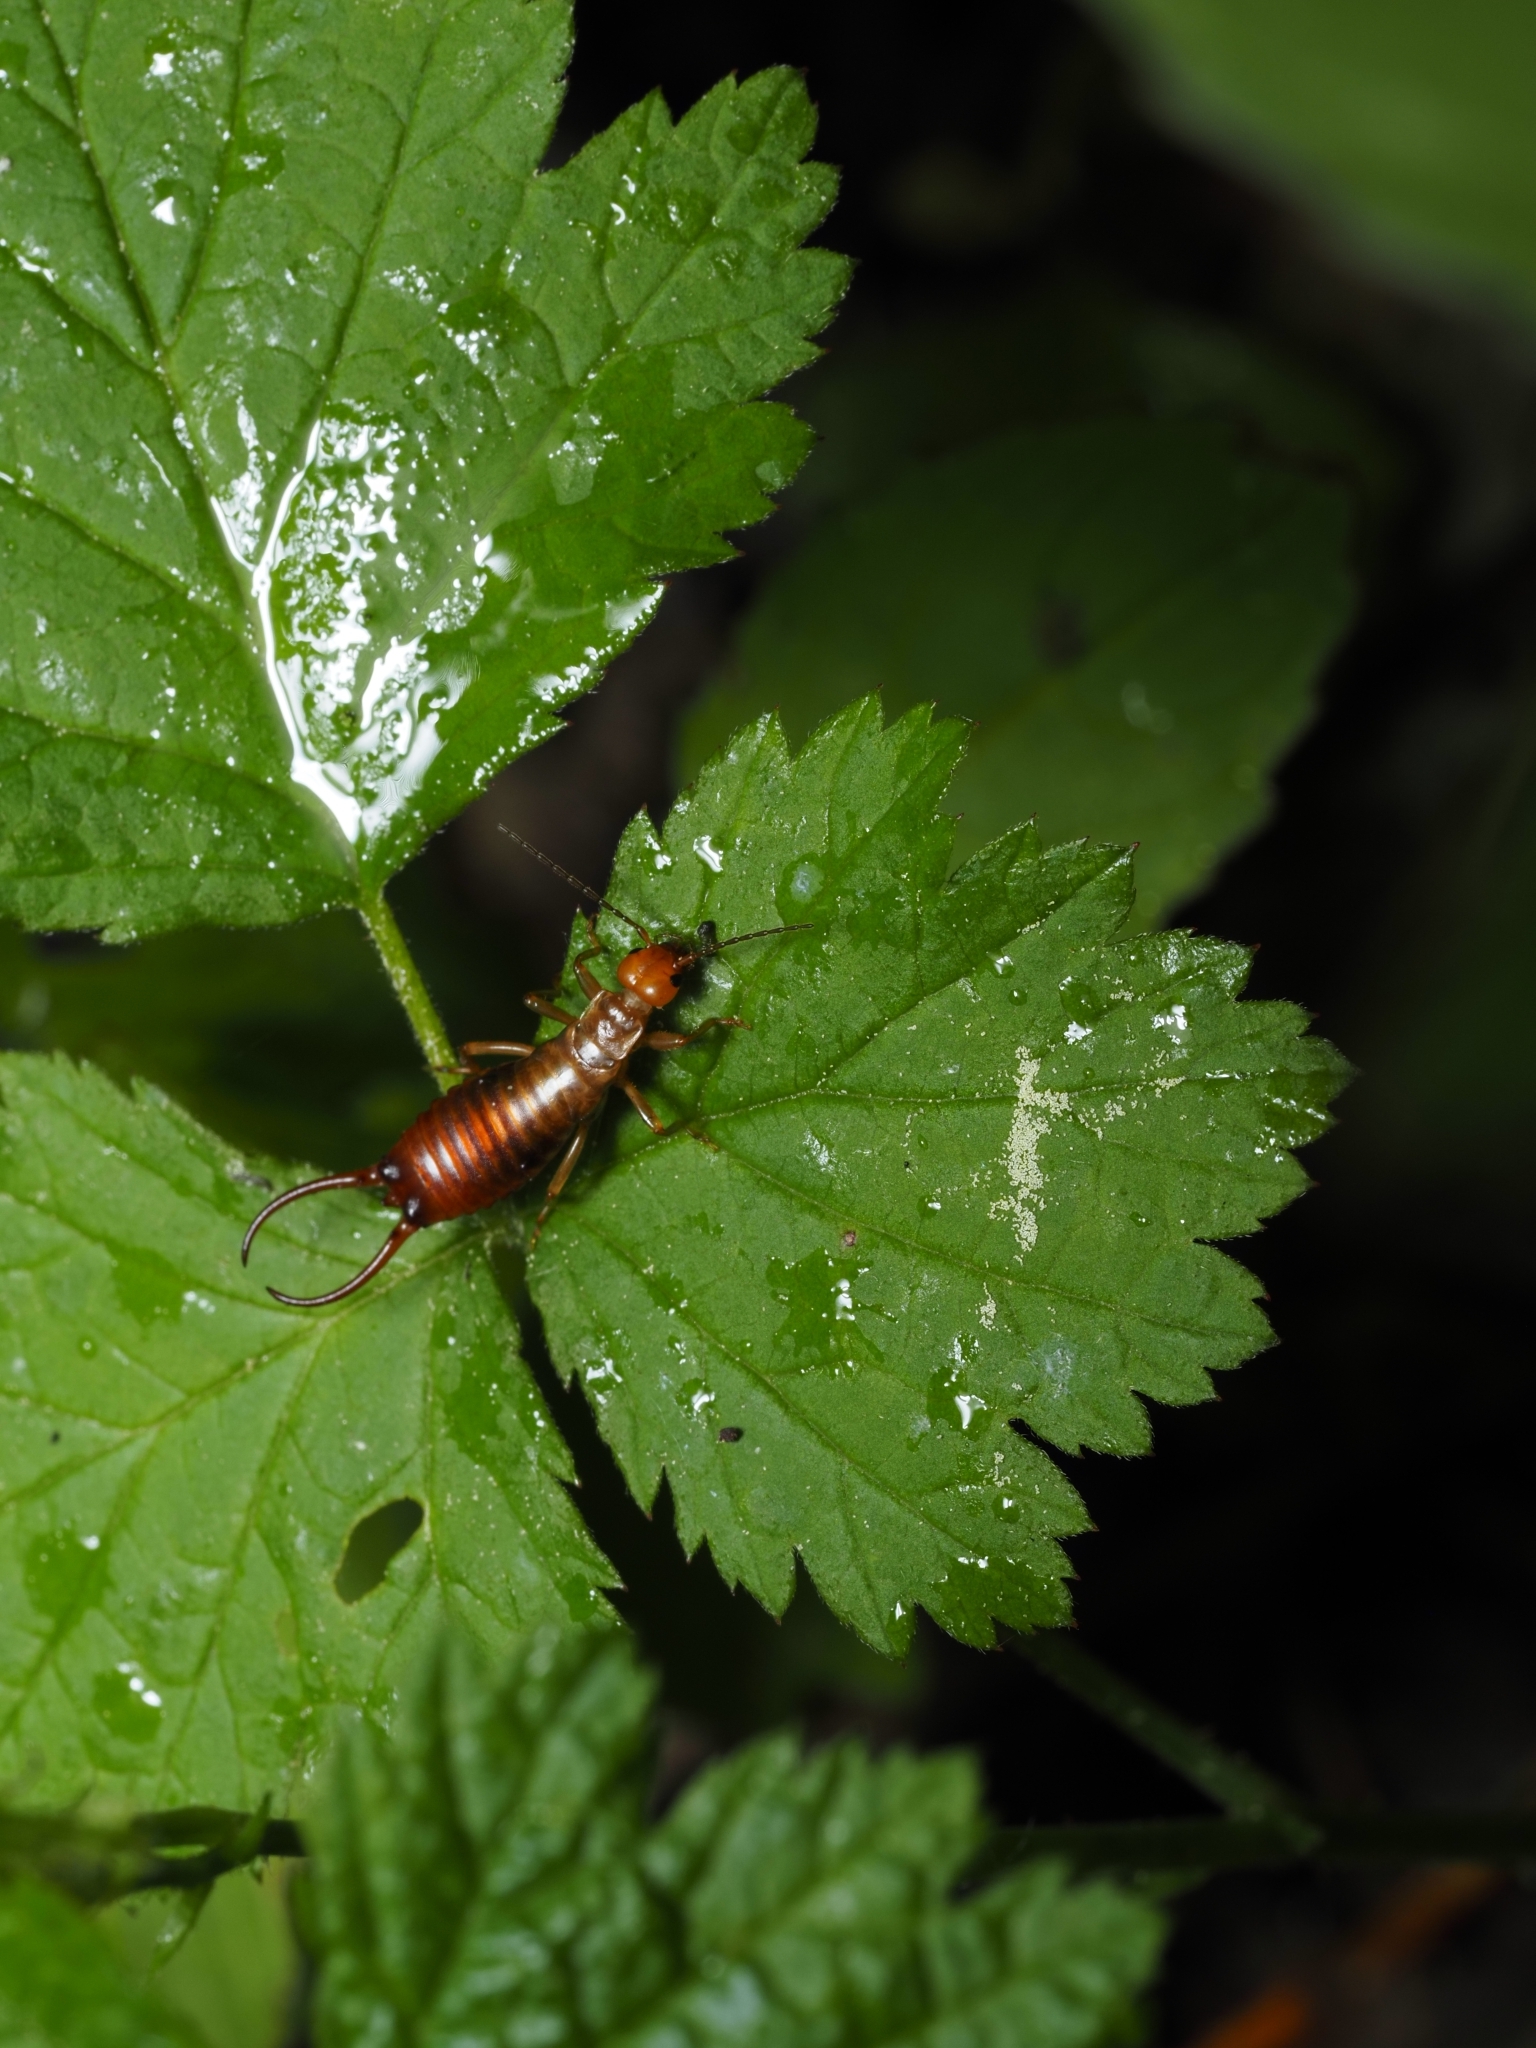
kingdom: Animalia
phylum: Arthropoda
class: Insecta
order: Dermaptera
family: Forficulidae
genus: Chelidurella
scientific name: Chelidurella acanthopygia
